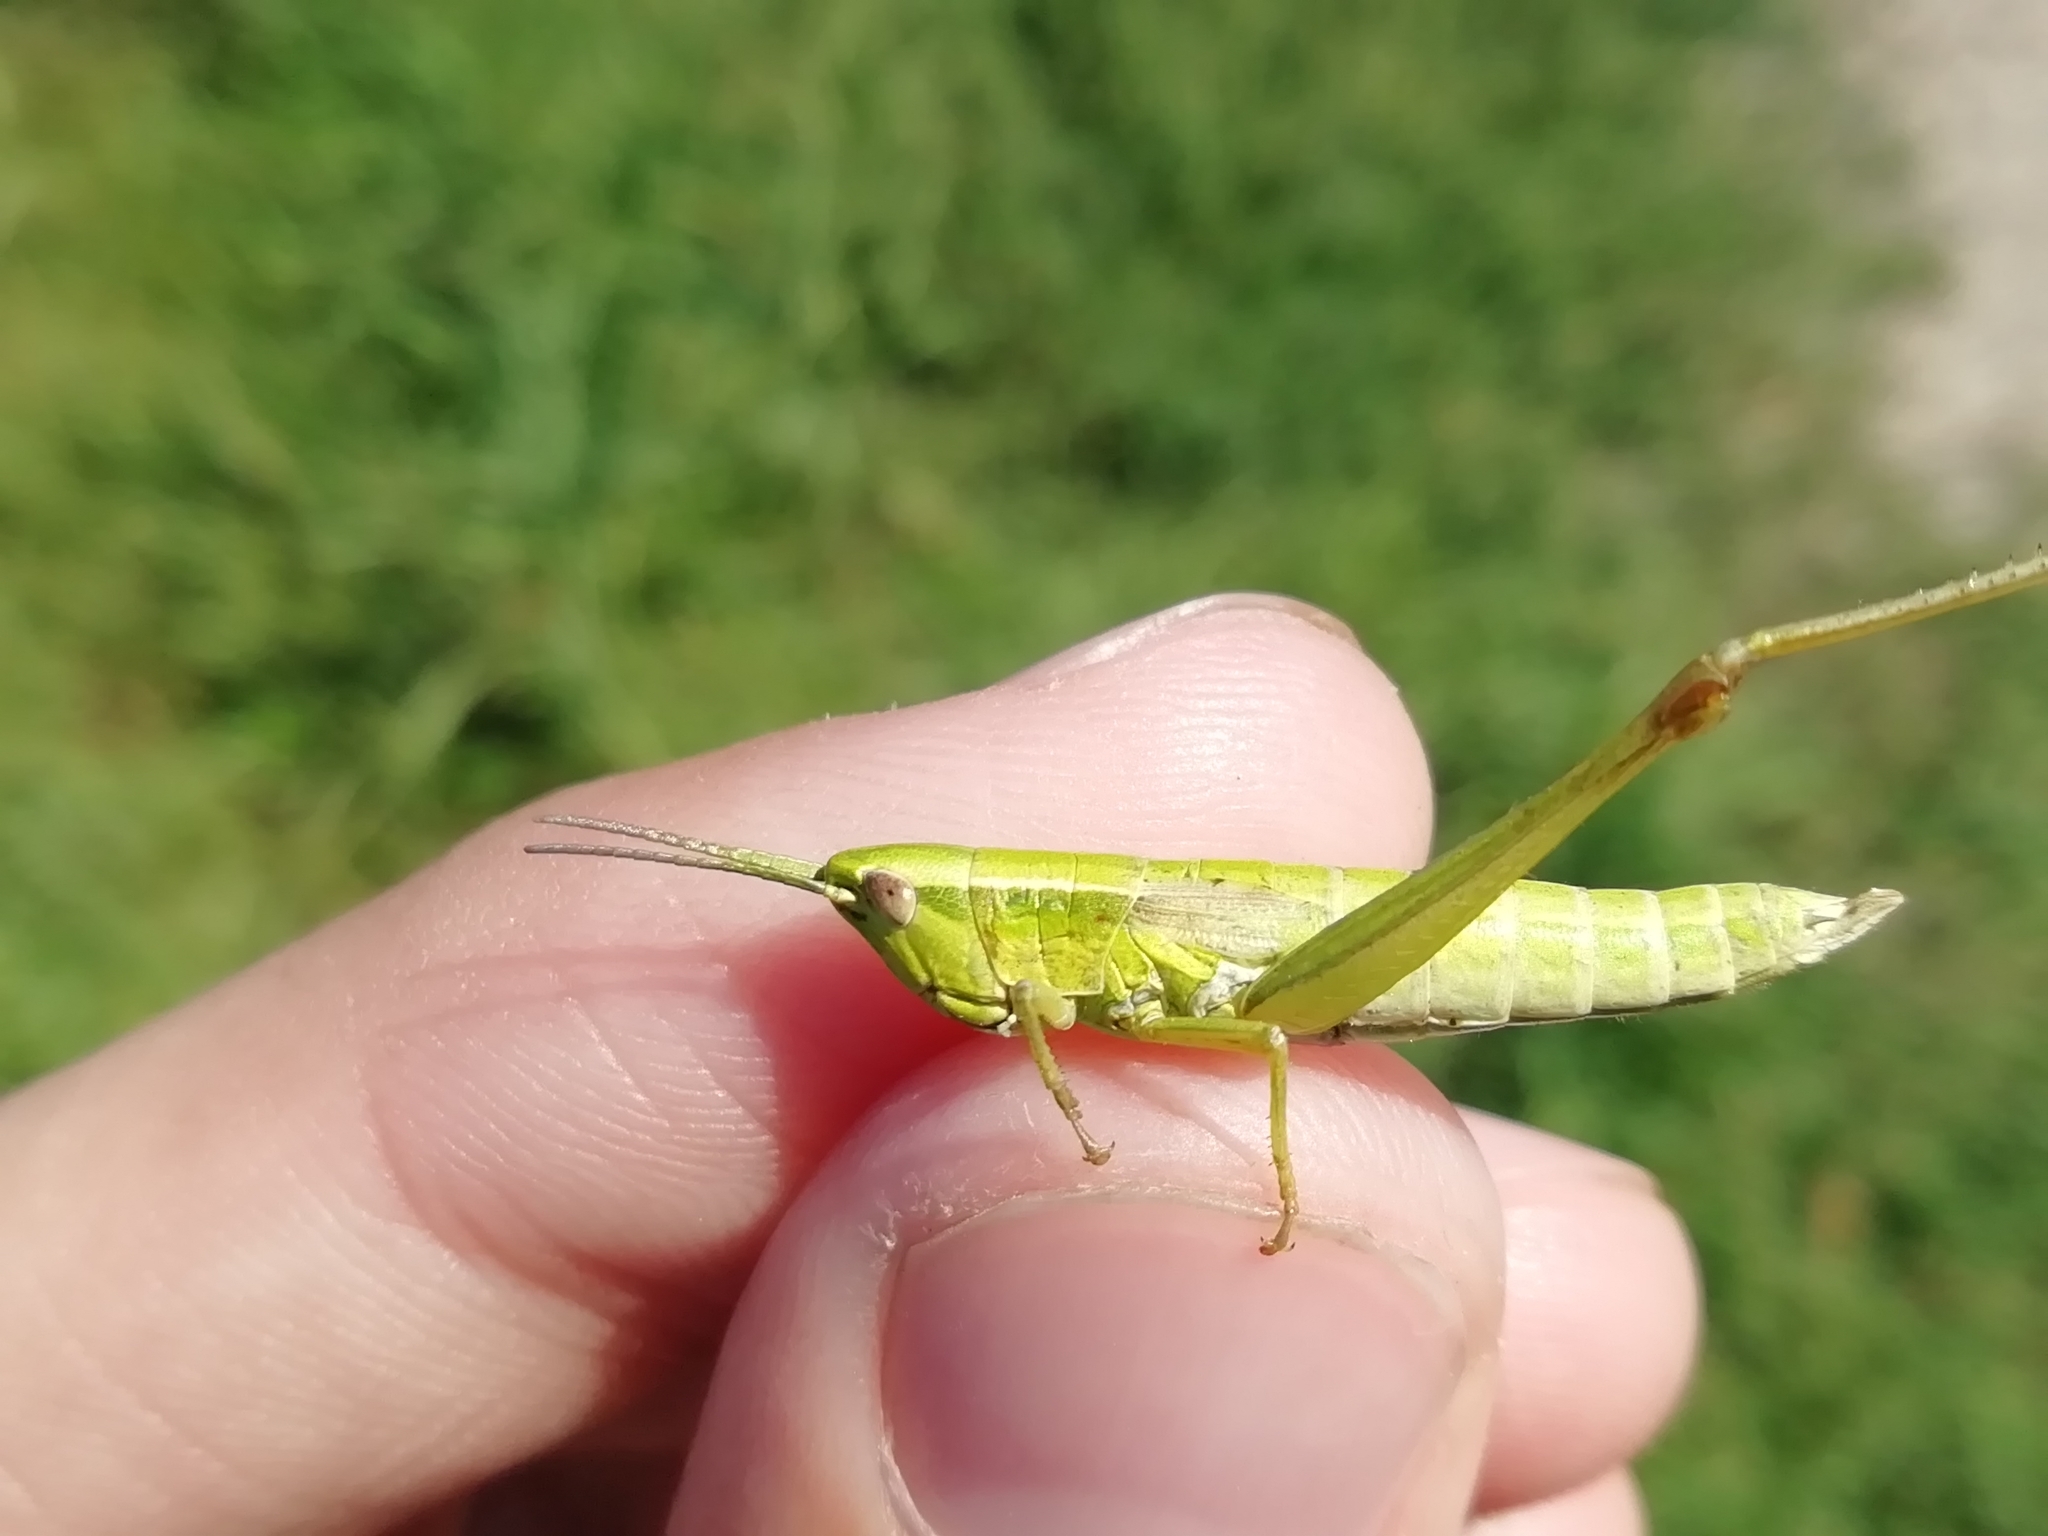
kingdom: Animalia
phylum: Arthropoda
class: Insecta
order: Orthoptera
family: Acrididae
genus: Euthystira
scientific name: Euthystira brachyptera
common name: Small gold grasshopper
